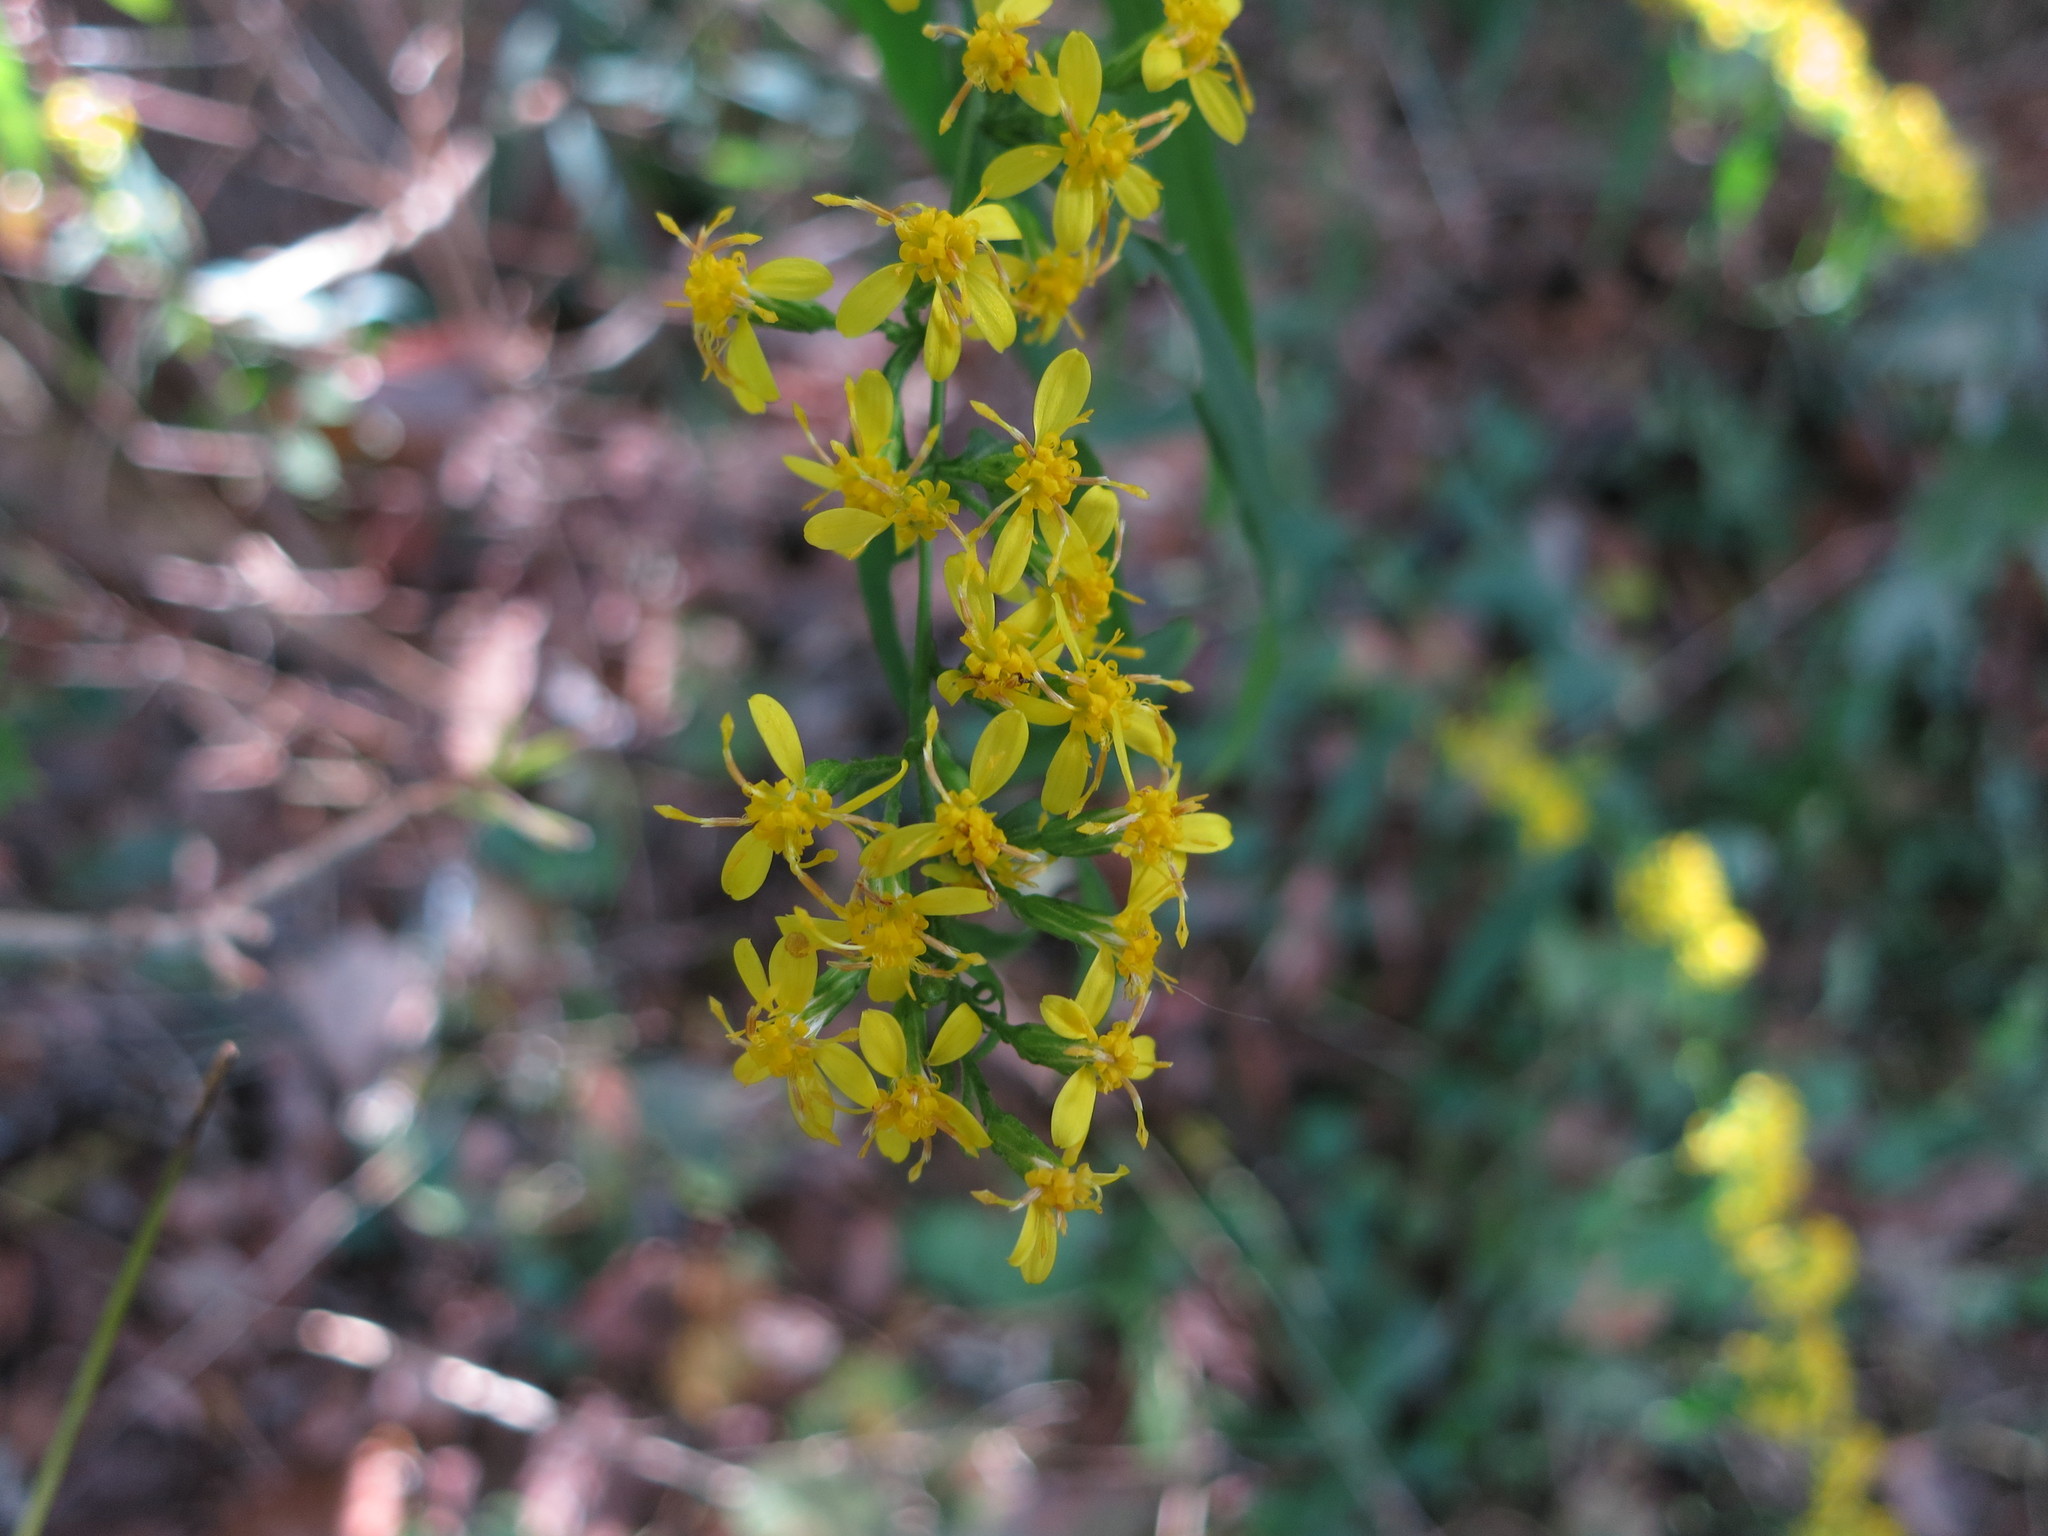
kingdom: Plantae
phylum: Tracheophyta
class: Magnoliopsida
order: Asterales
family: Asteraceae
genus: Solidago
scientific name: Solidago caesia
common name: Woodland goldenrod
